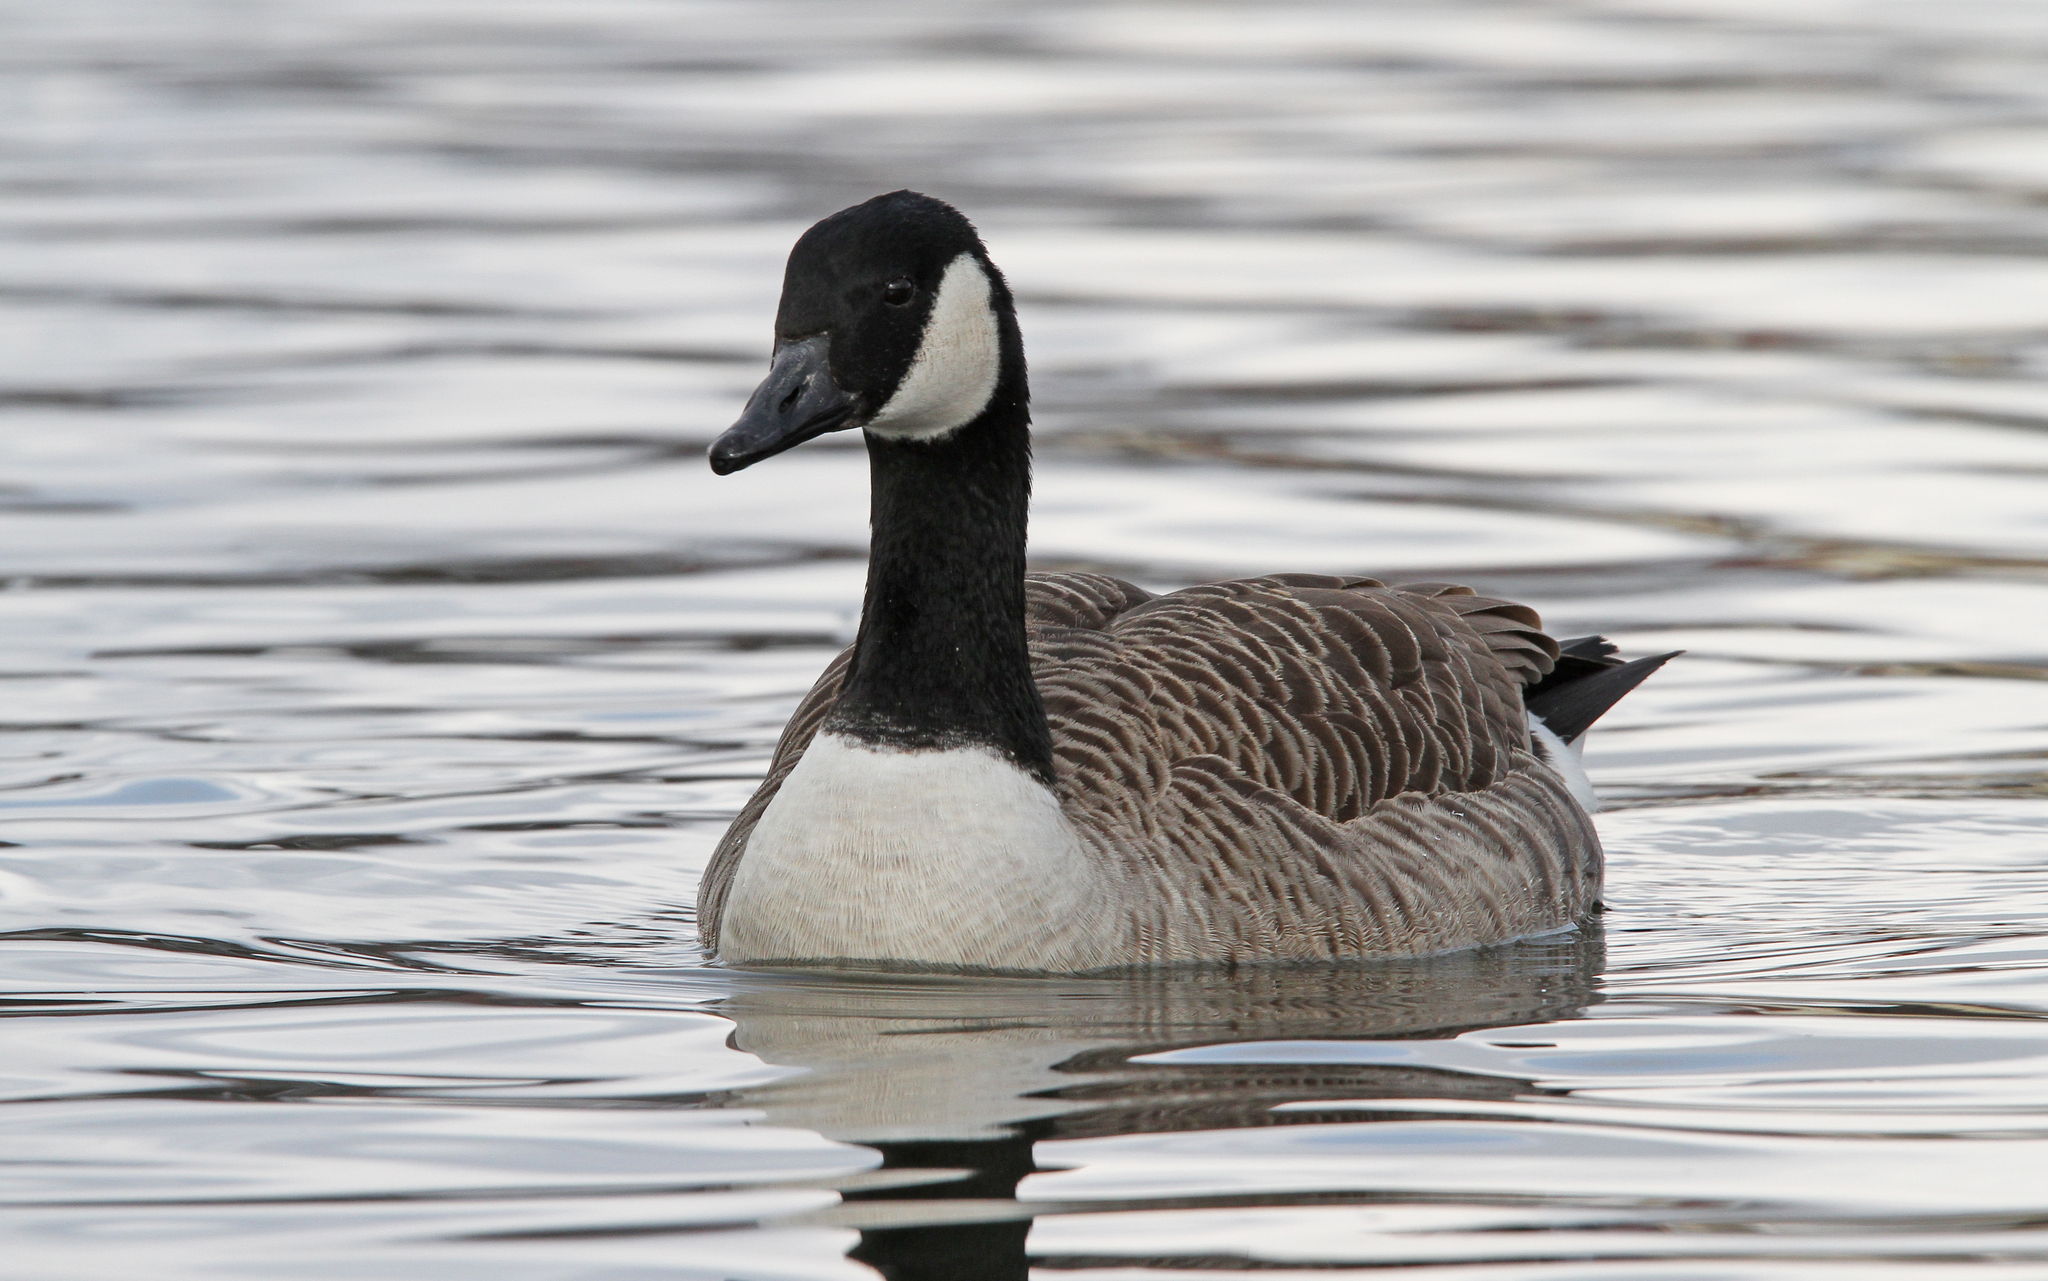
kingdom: Animalia
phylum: Chordata
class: Aves
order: Anseriformes
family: Anatidae
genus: Branta
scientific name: Branta canadensis
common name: Canada goose
